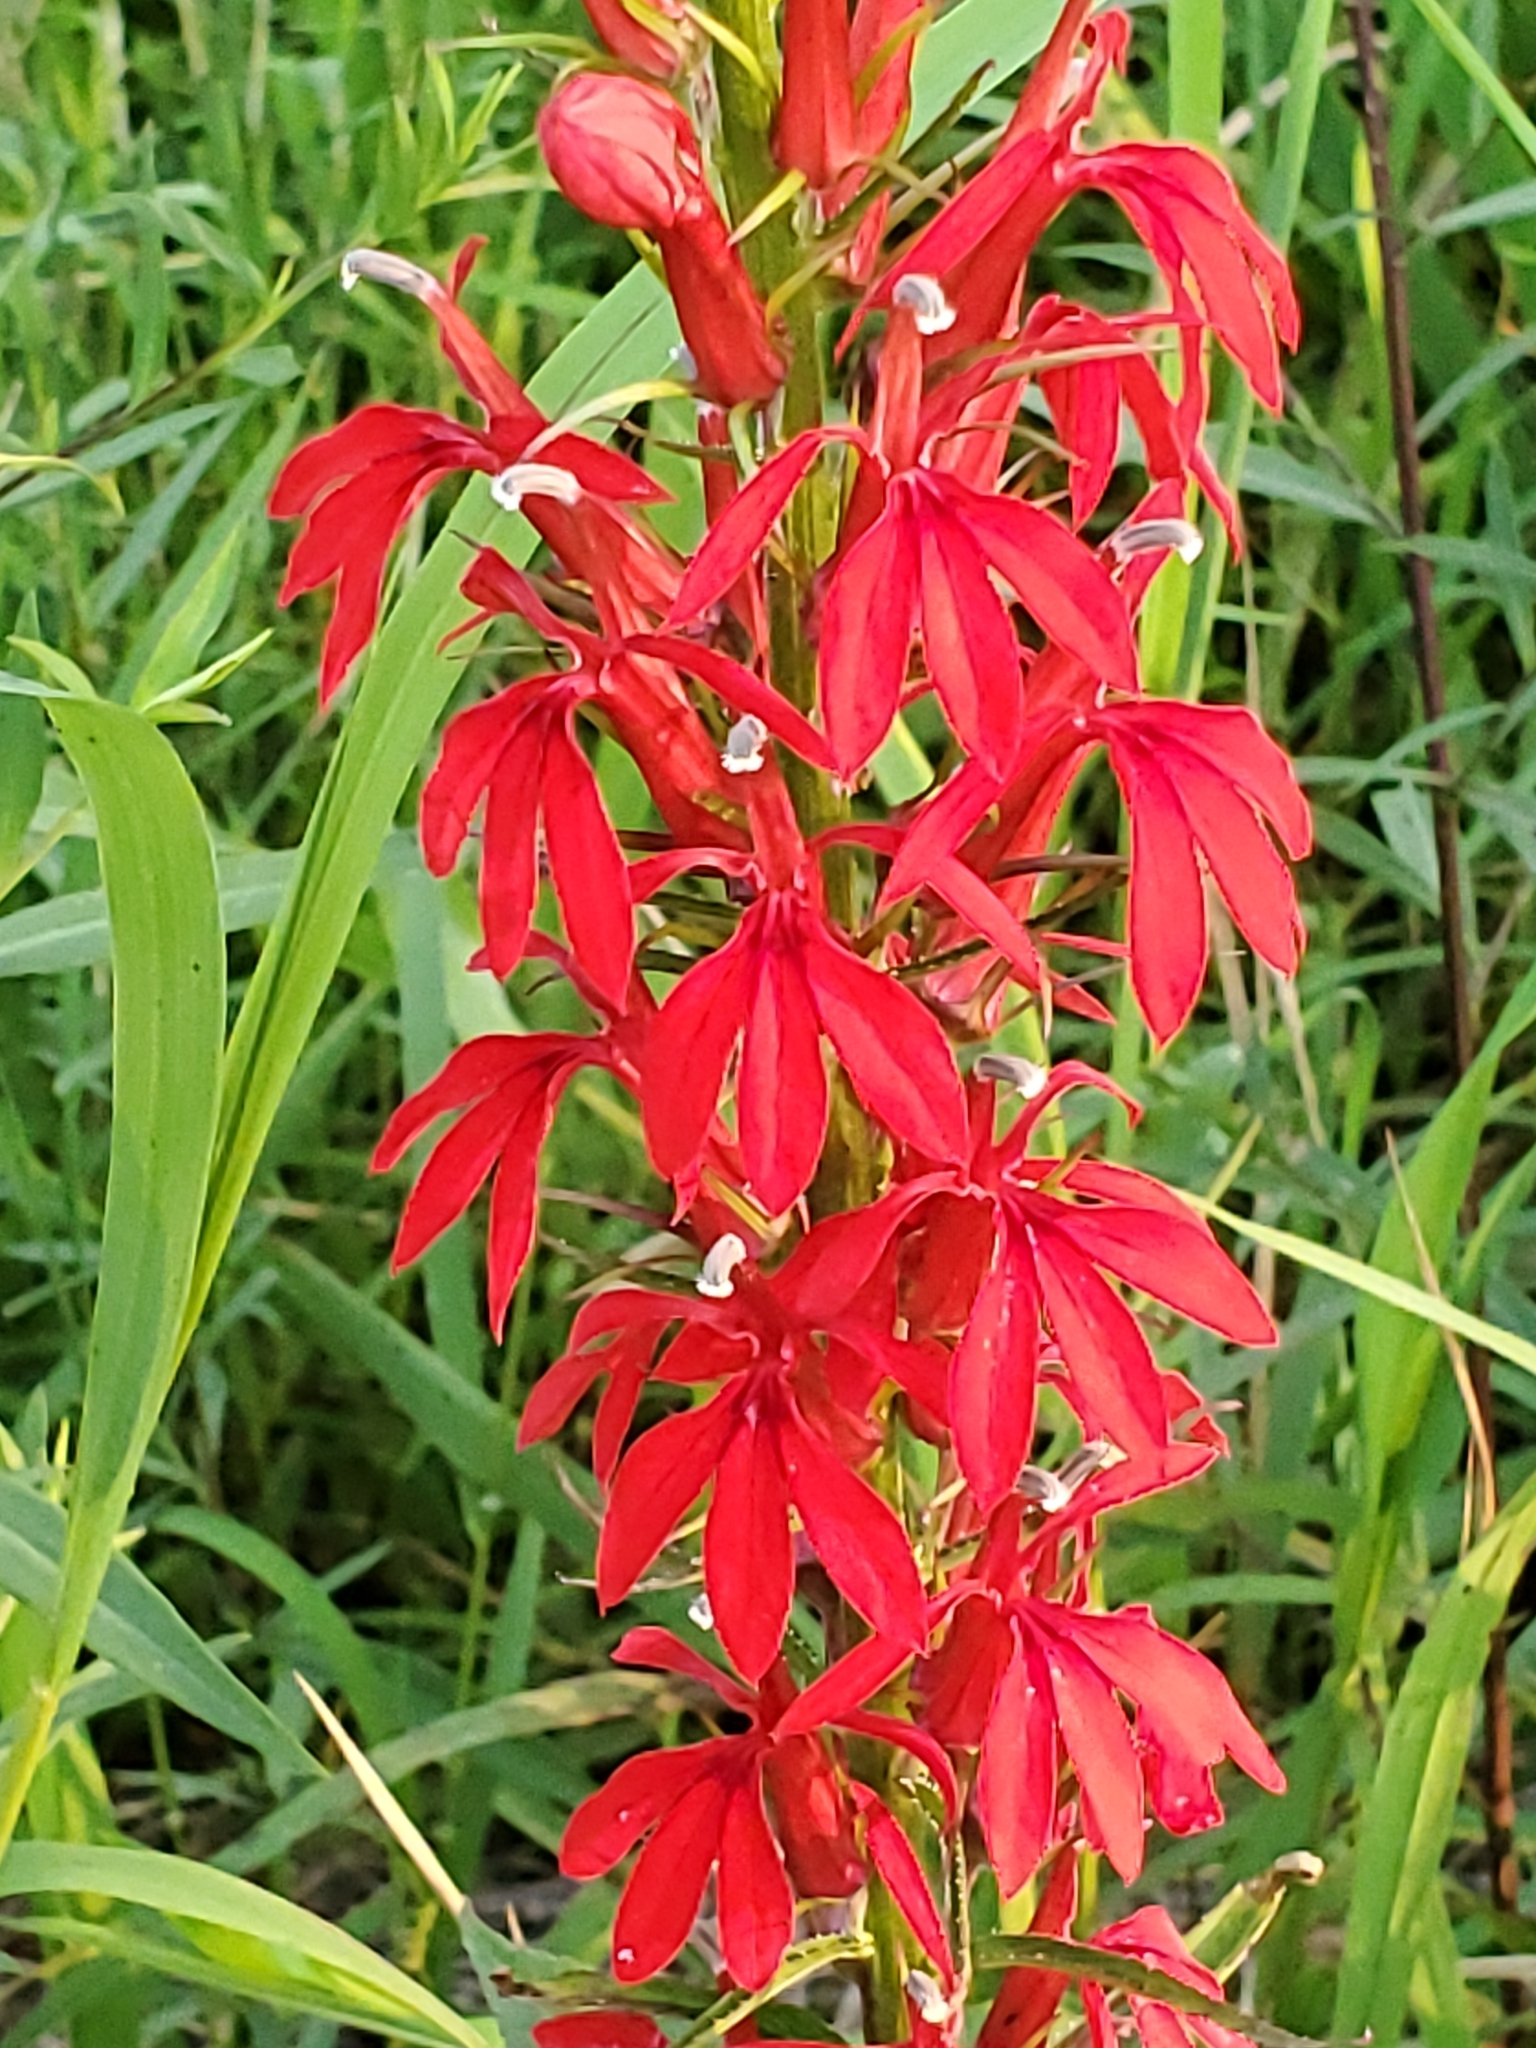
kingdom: Plantae
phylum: Tracheophyta
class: Magnoliopsida
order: Asterales
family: Campanulaceae
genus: Lobelia
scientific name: Lobelia cardinalis
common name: Cardinal flower
